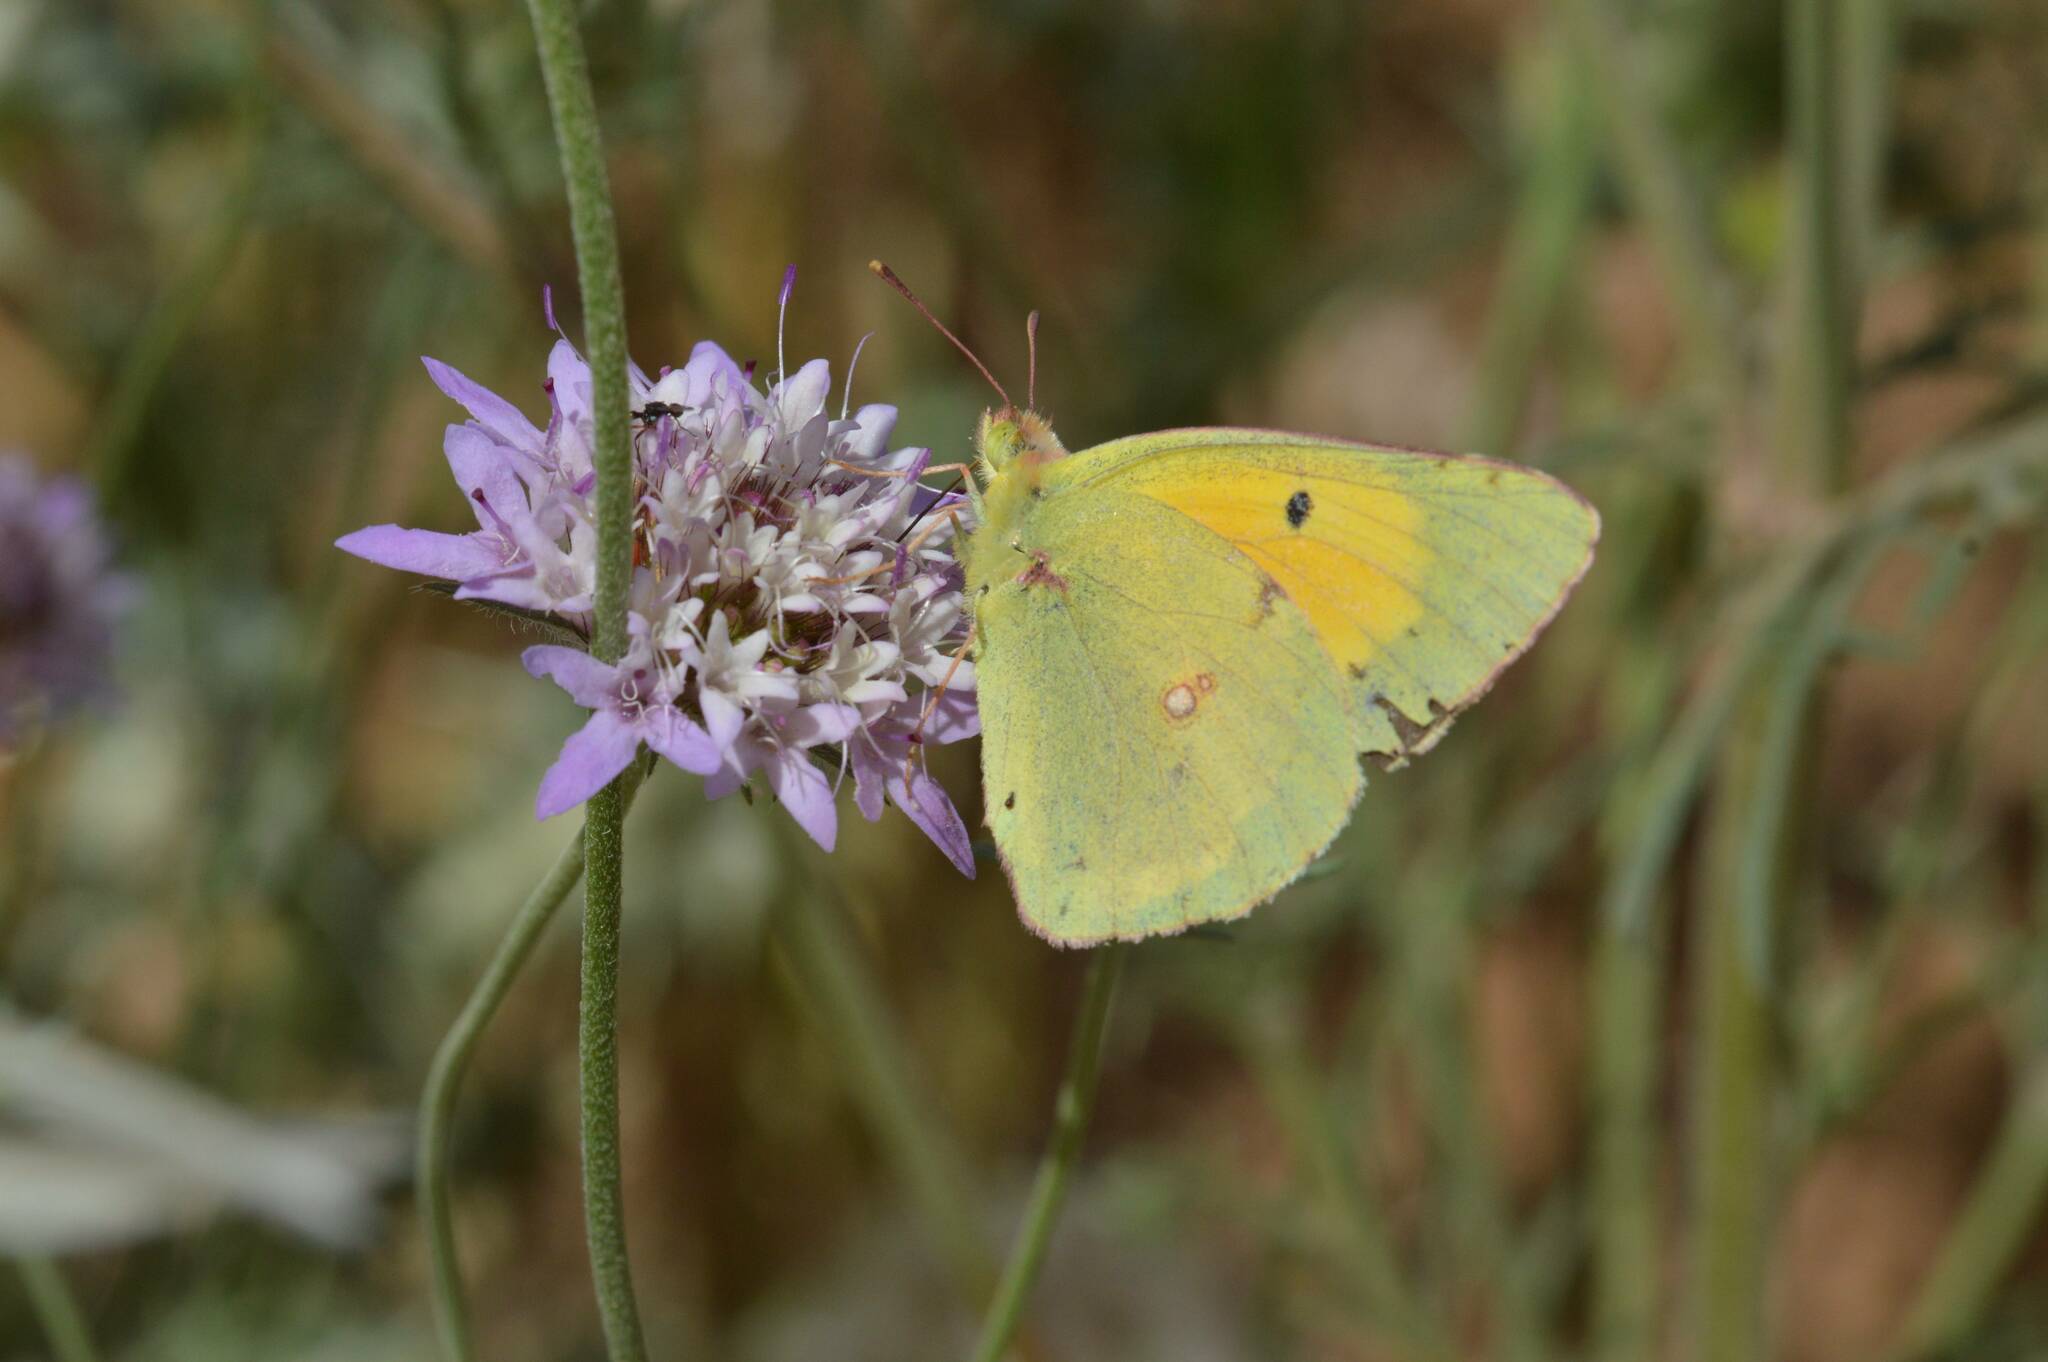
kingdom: Animalia
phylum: Arthropoda
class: Insecta
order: Lepidoptera
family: Pieridae
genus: Colias
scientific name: Colias croceus
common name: Clouded yellow
